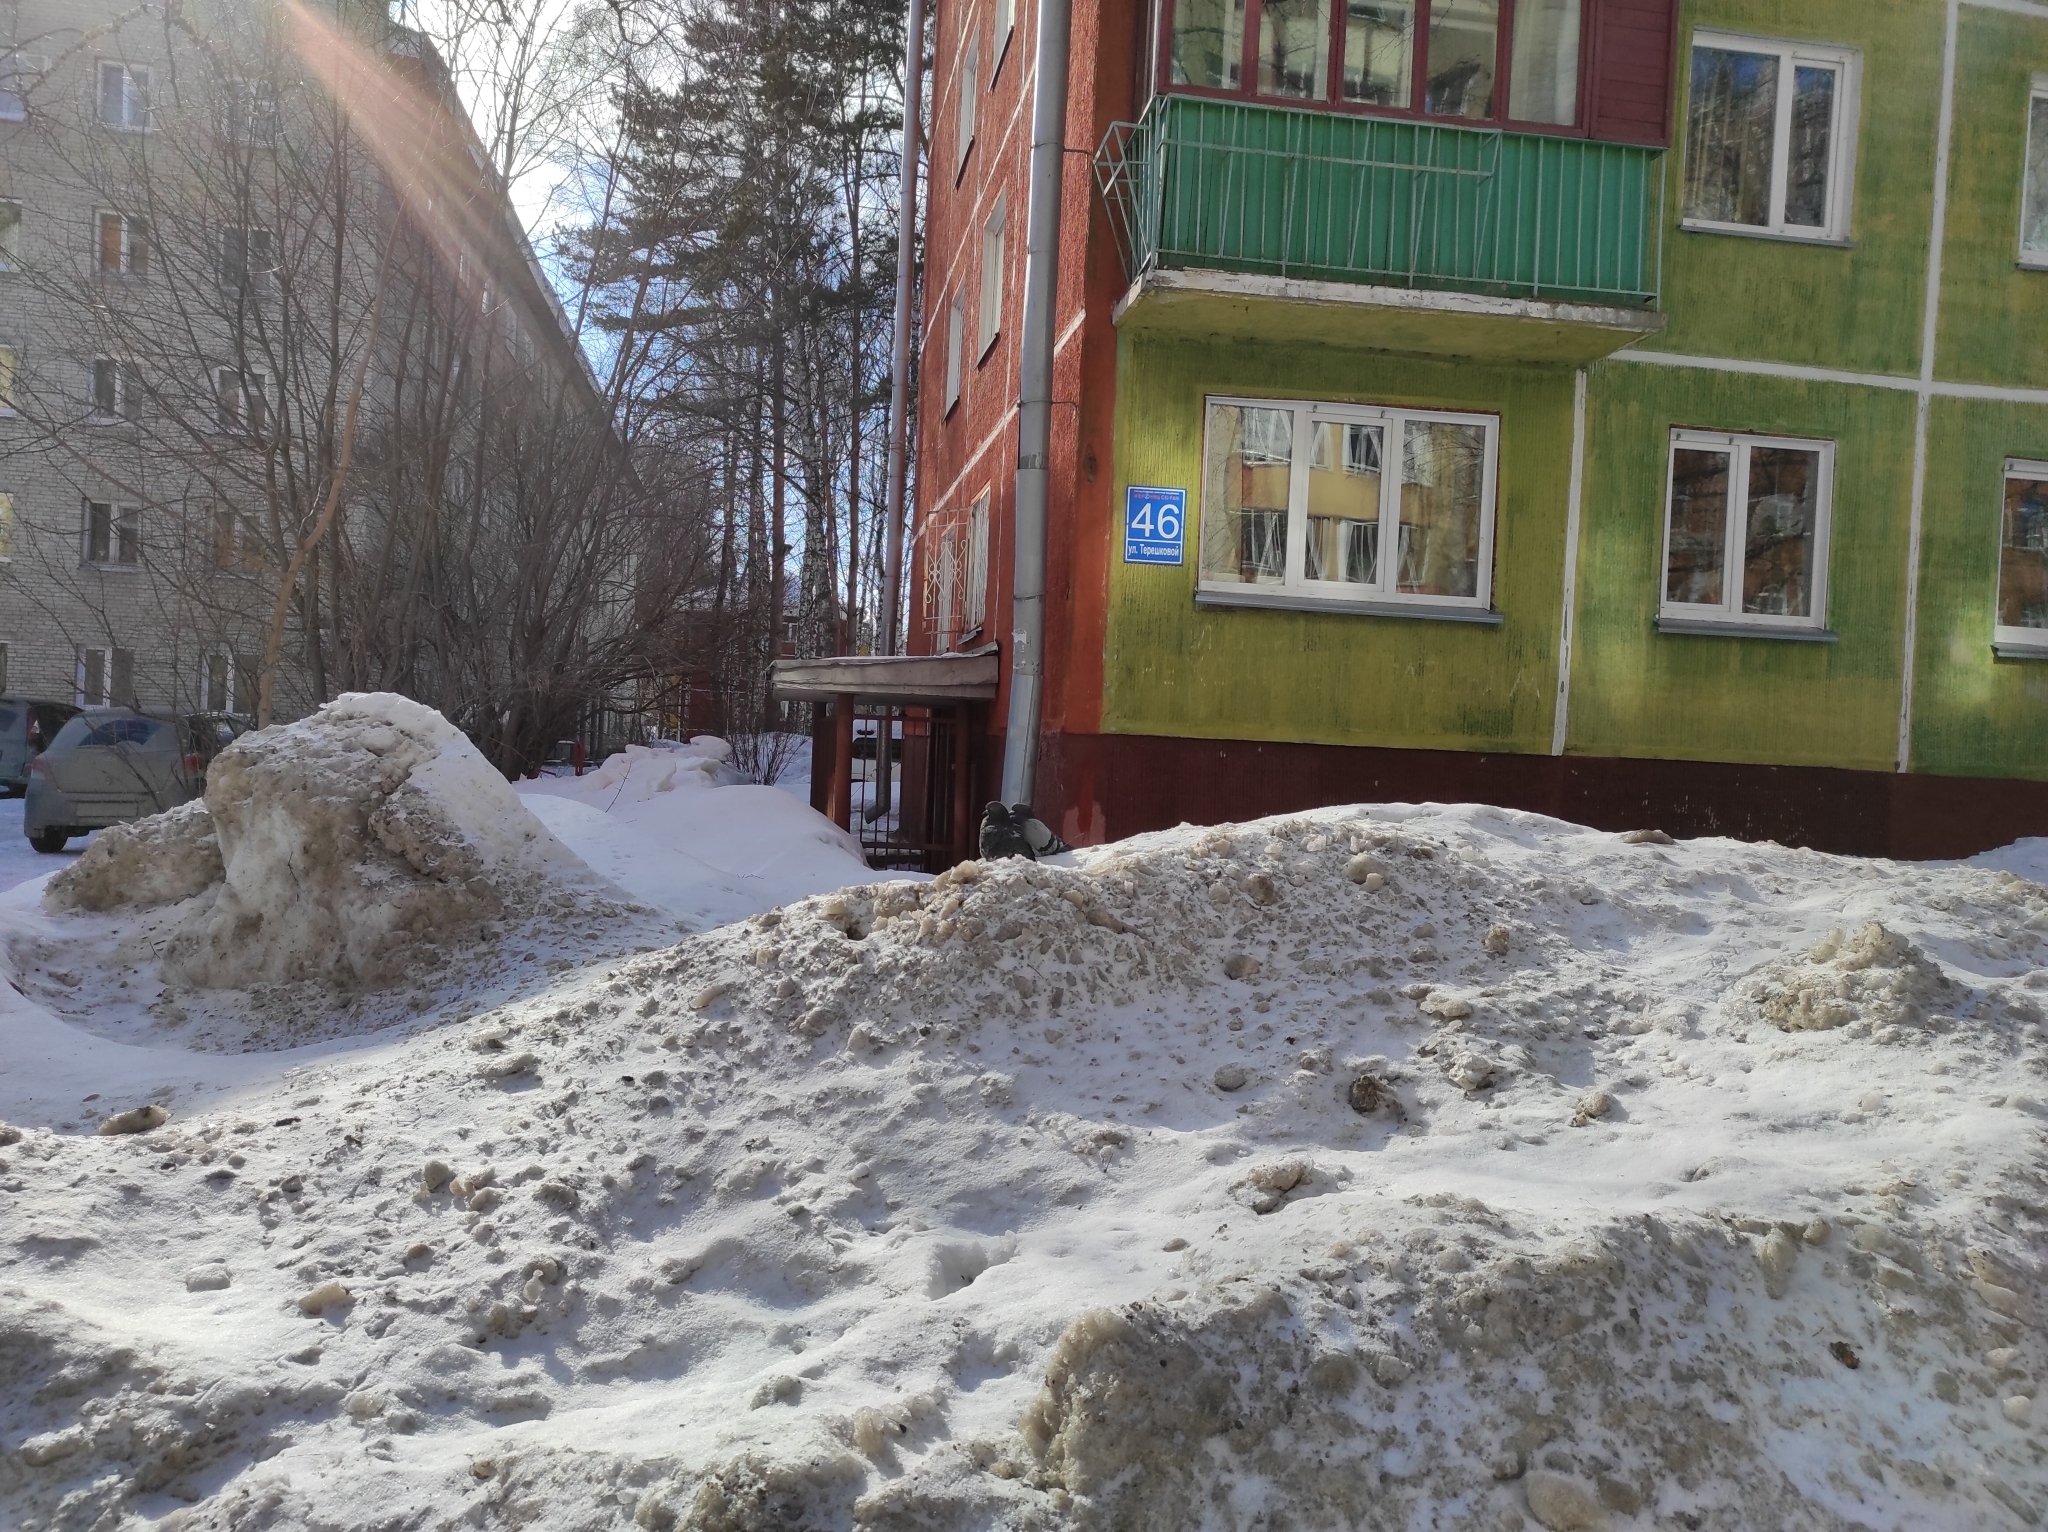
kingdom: Animalia
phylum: Chordata
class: Aves
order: Columbiformes
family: Columbidae
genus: Columba
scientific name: Columba livia
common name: Rock pigeon
